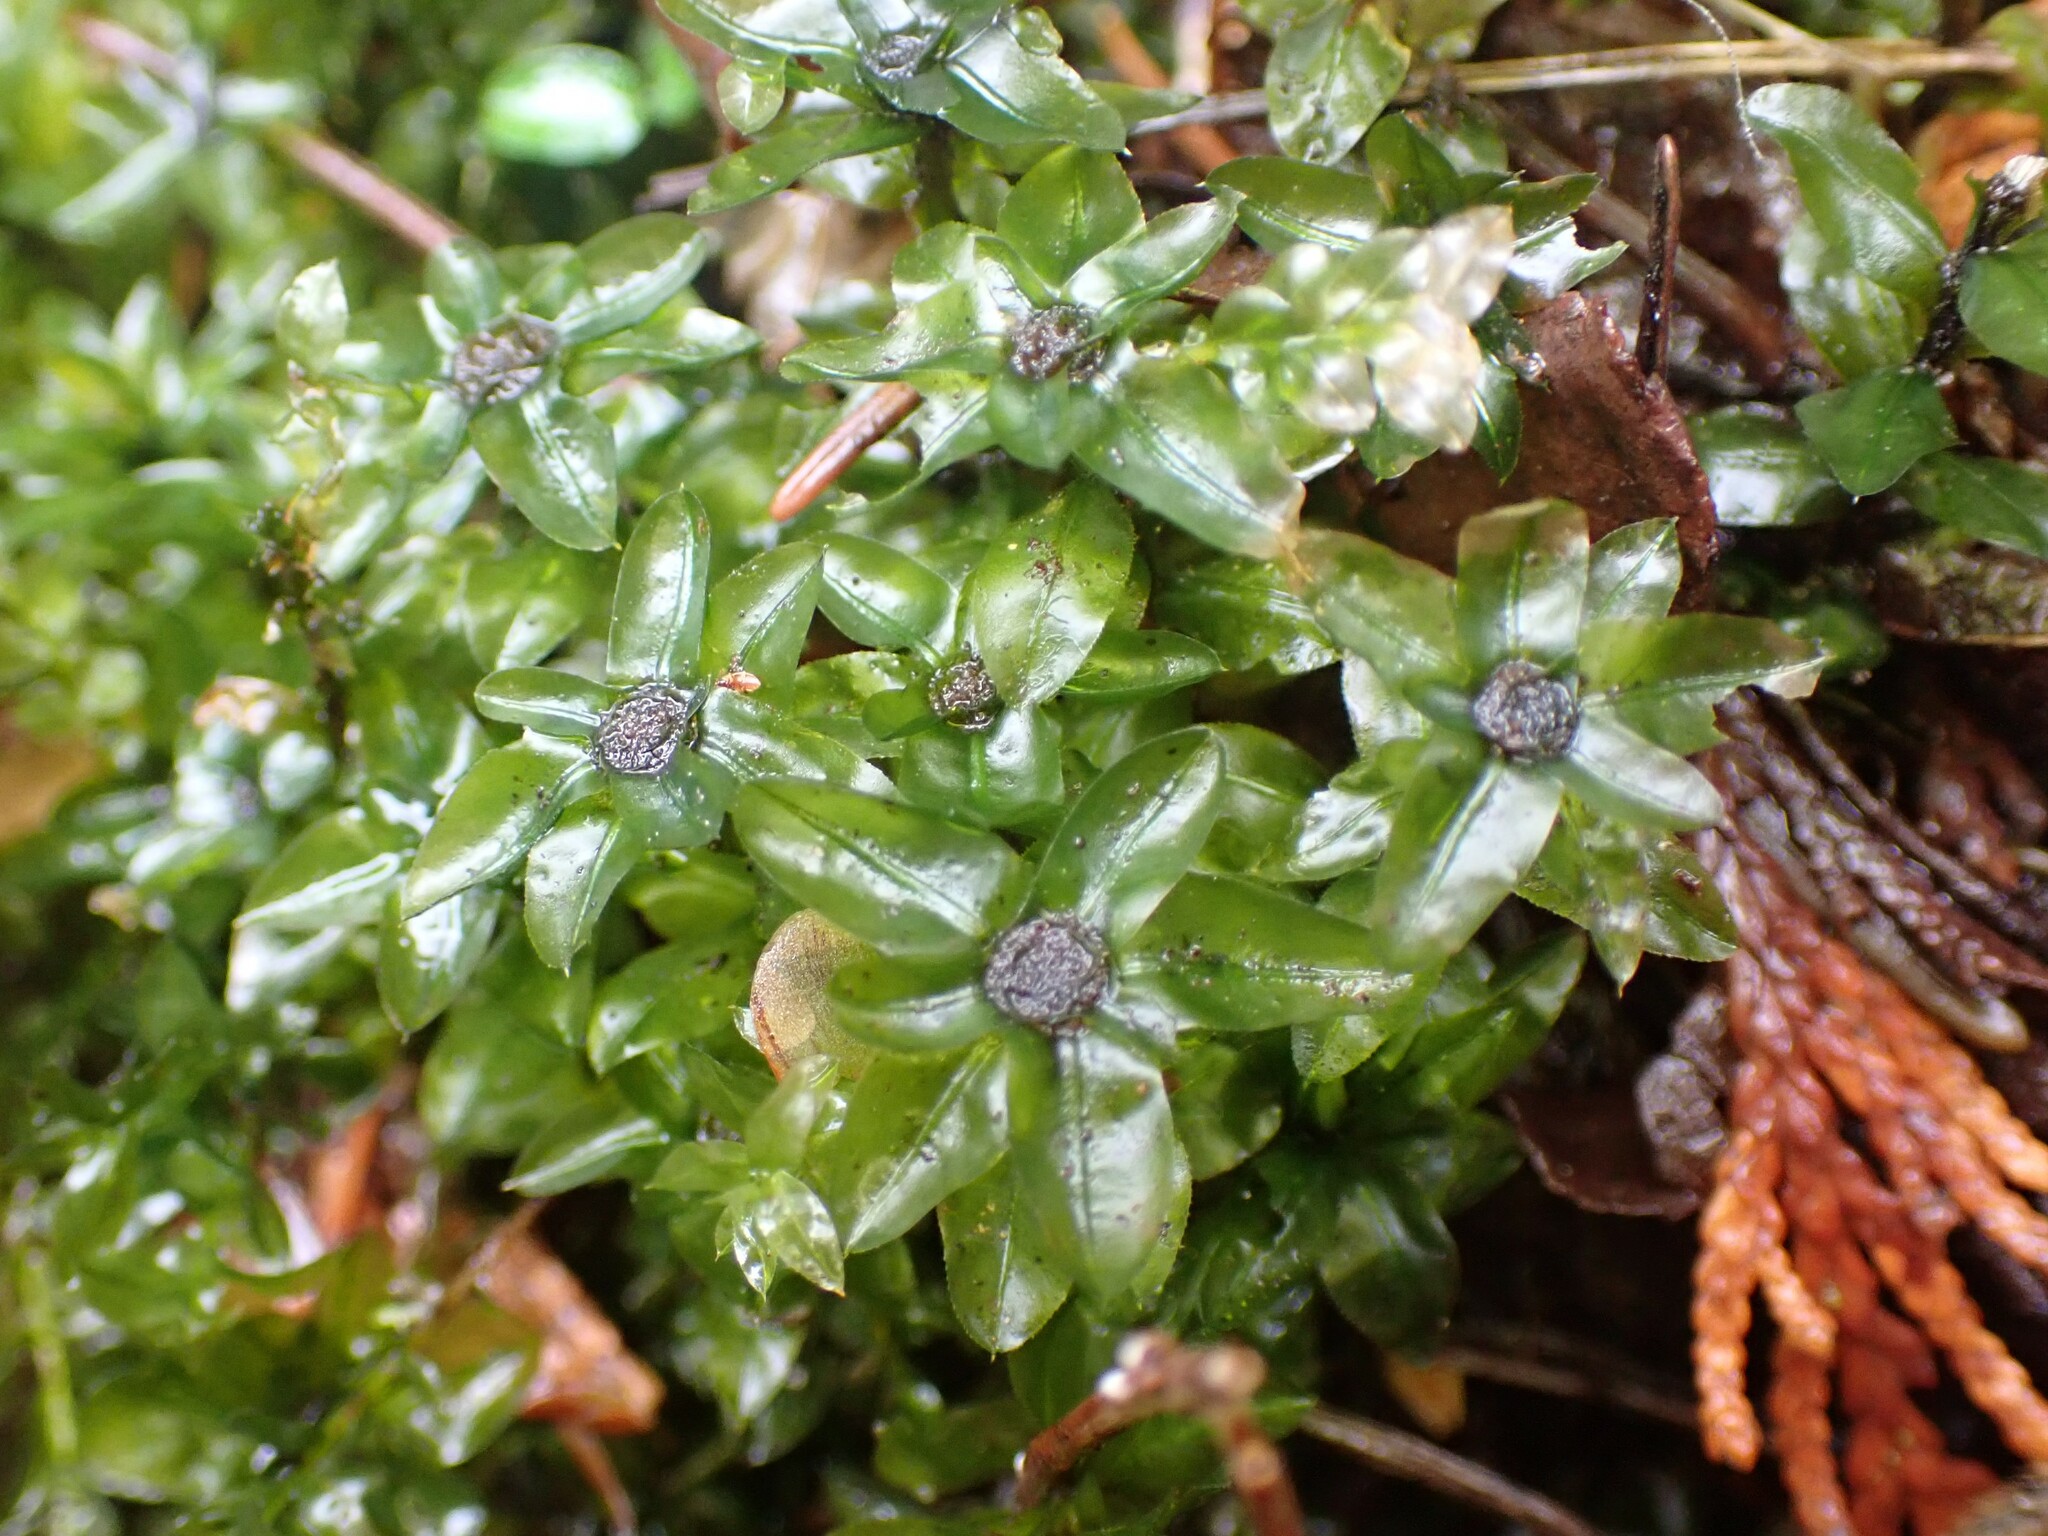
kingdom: Plantae
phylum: Bryophyta
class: Bryopsida
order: Bryales
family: Mniaceae
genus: Plagiomnium
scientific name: Plagiomnium insigne
